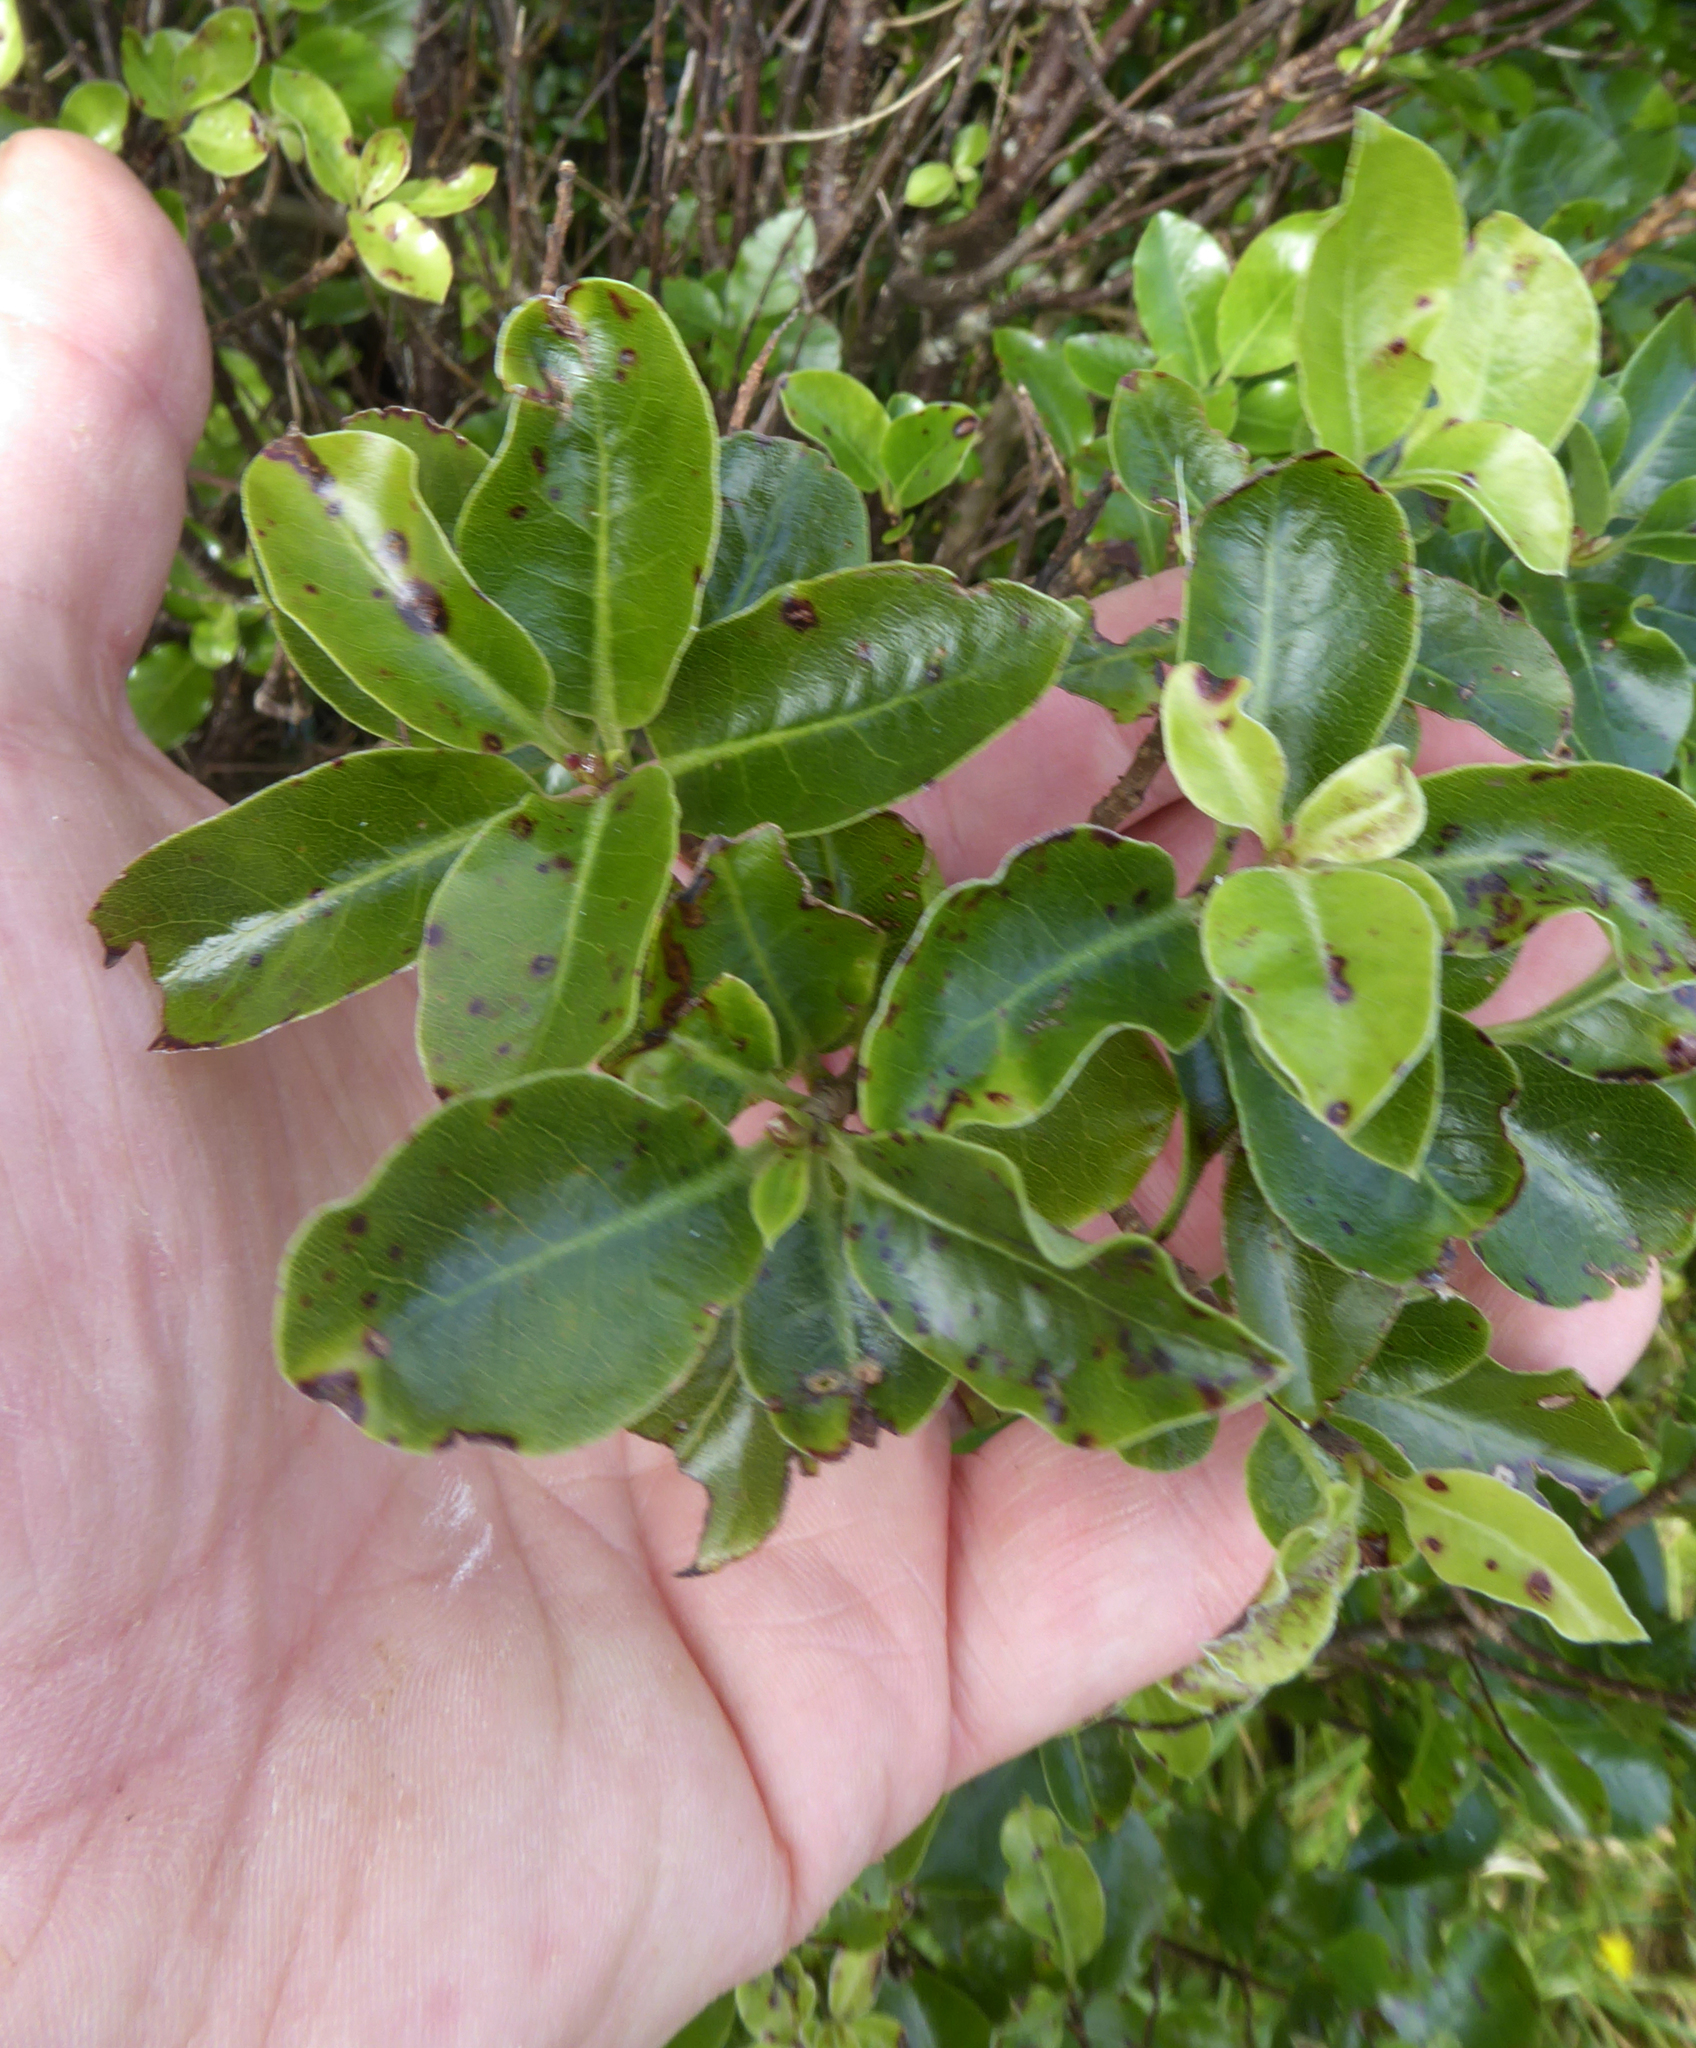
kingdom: Plantae
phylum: Tracheophyta
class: Magnoliopsida
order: Apiales
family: Pittosporaceae
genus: Pittosporum
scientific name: Pittosporum tenuifolium
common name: Kohuhu
